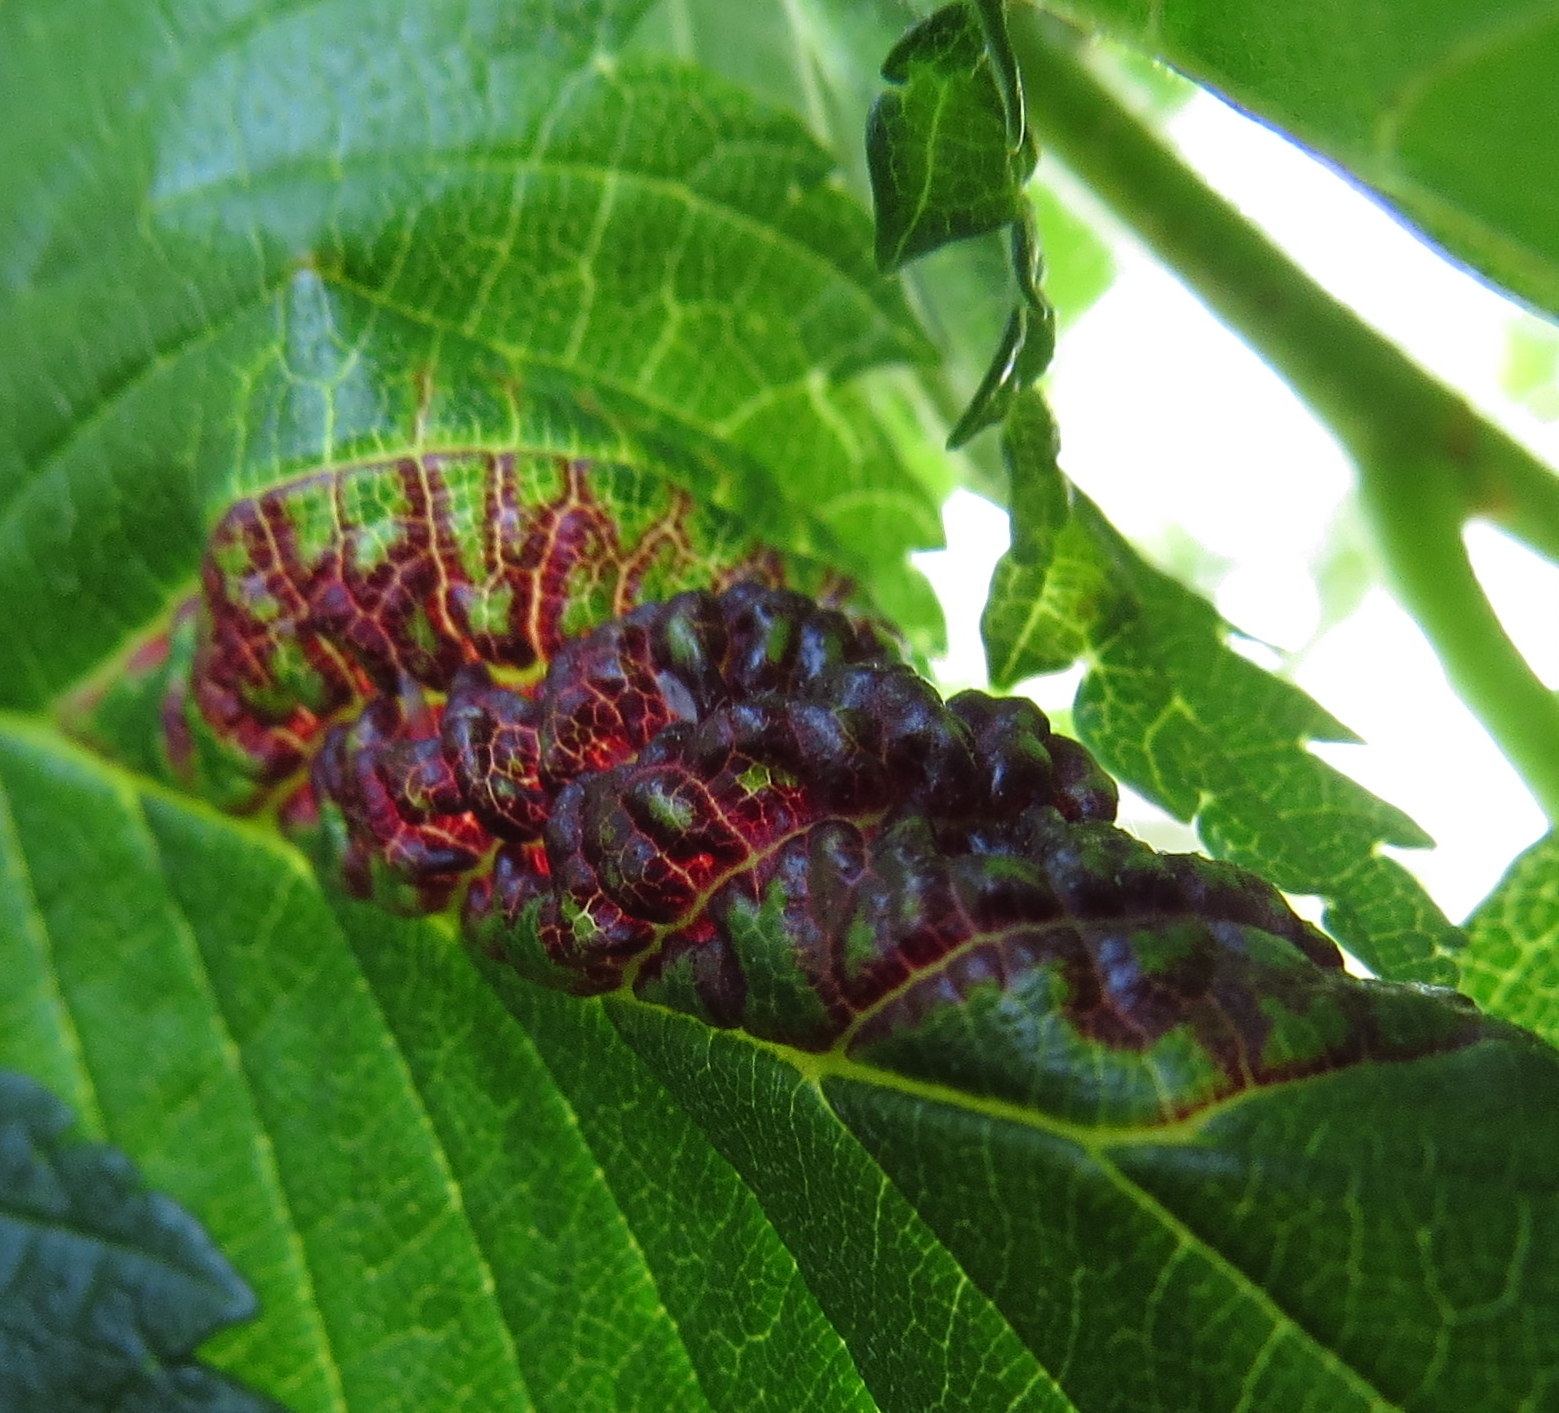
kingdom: Animalia
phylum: Arthropoda
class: Insecta
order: Hemiptera
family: Aphididae
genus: Eriosoma
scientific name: Eriosoma americanum
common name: Woolly elm aphid
